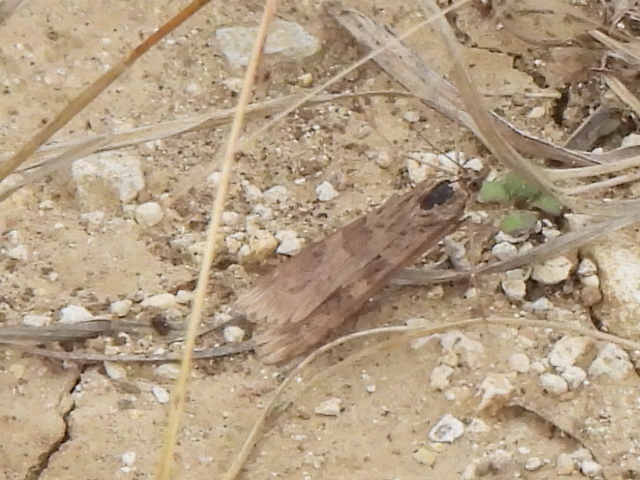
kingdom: Animalia
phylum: Arthropoda
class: Insecta
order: Lepidoptera
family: Crambidae
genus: Nomophila
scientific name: Nomophila nearctica
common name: American rush veneer
